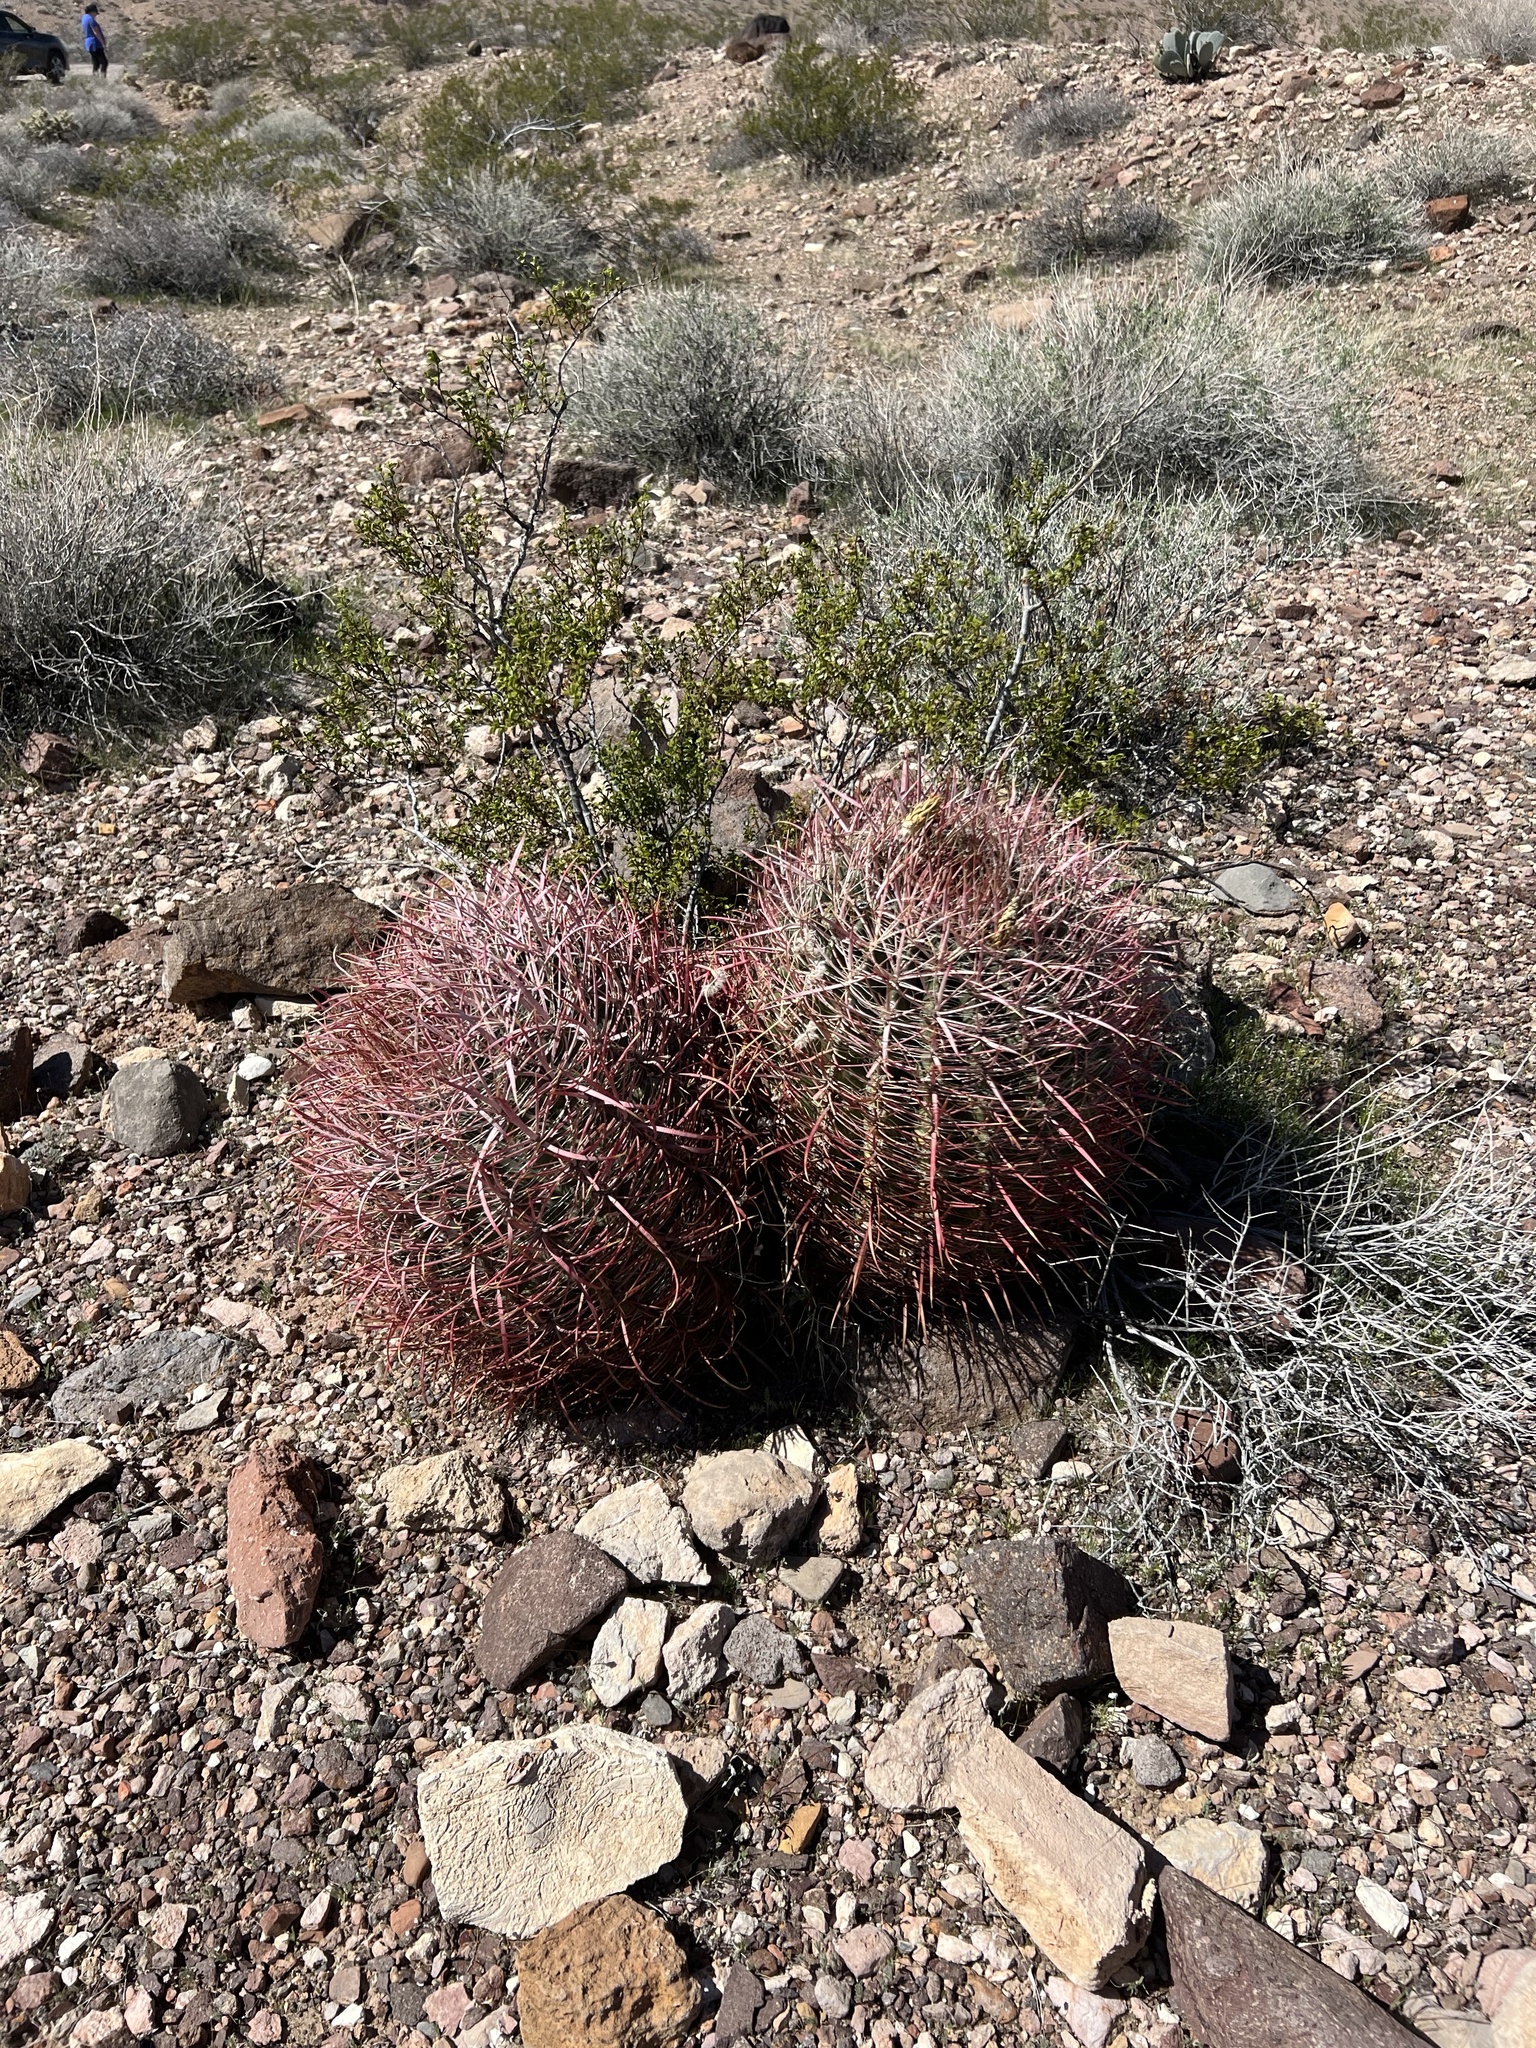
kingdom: Plantae
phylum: Tracheophyta
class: Magnoliopsida
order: Caryophyllales
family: Cactaceae
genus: Ferocactus
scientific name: Ferocactus cylindraceus
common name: California barrel cactus
